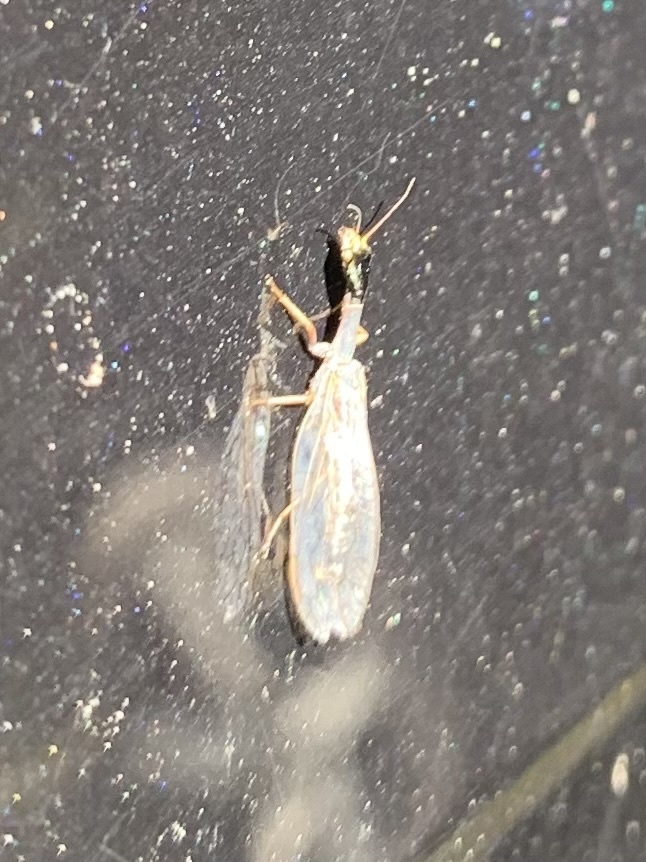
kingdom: Animalia
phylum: Arthropoda
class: Insecta
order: Raphidioptera
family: Raphidiidae
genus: Phaeostigma
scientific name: Phaeostigma notatum
